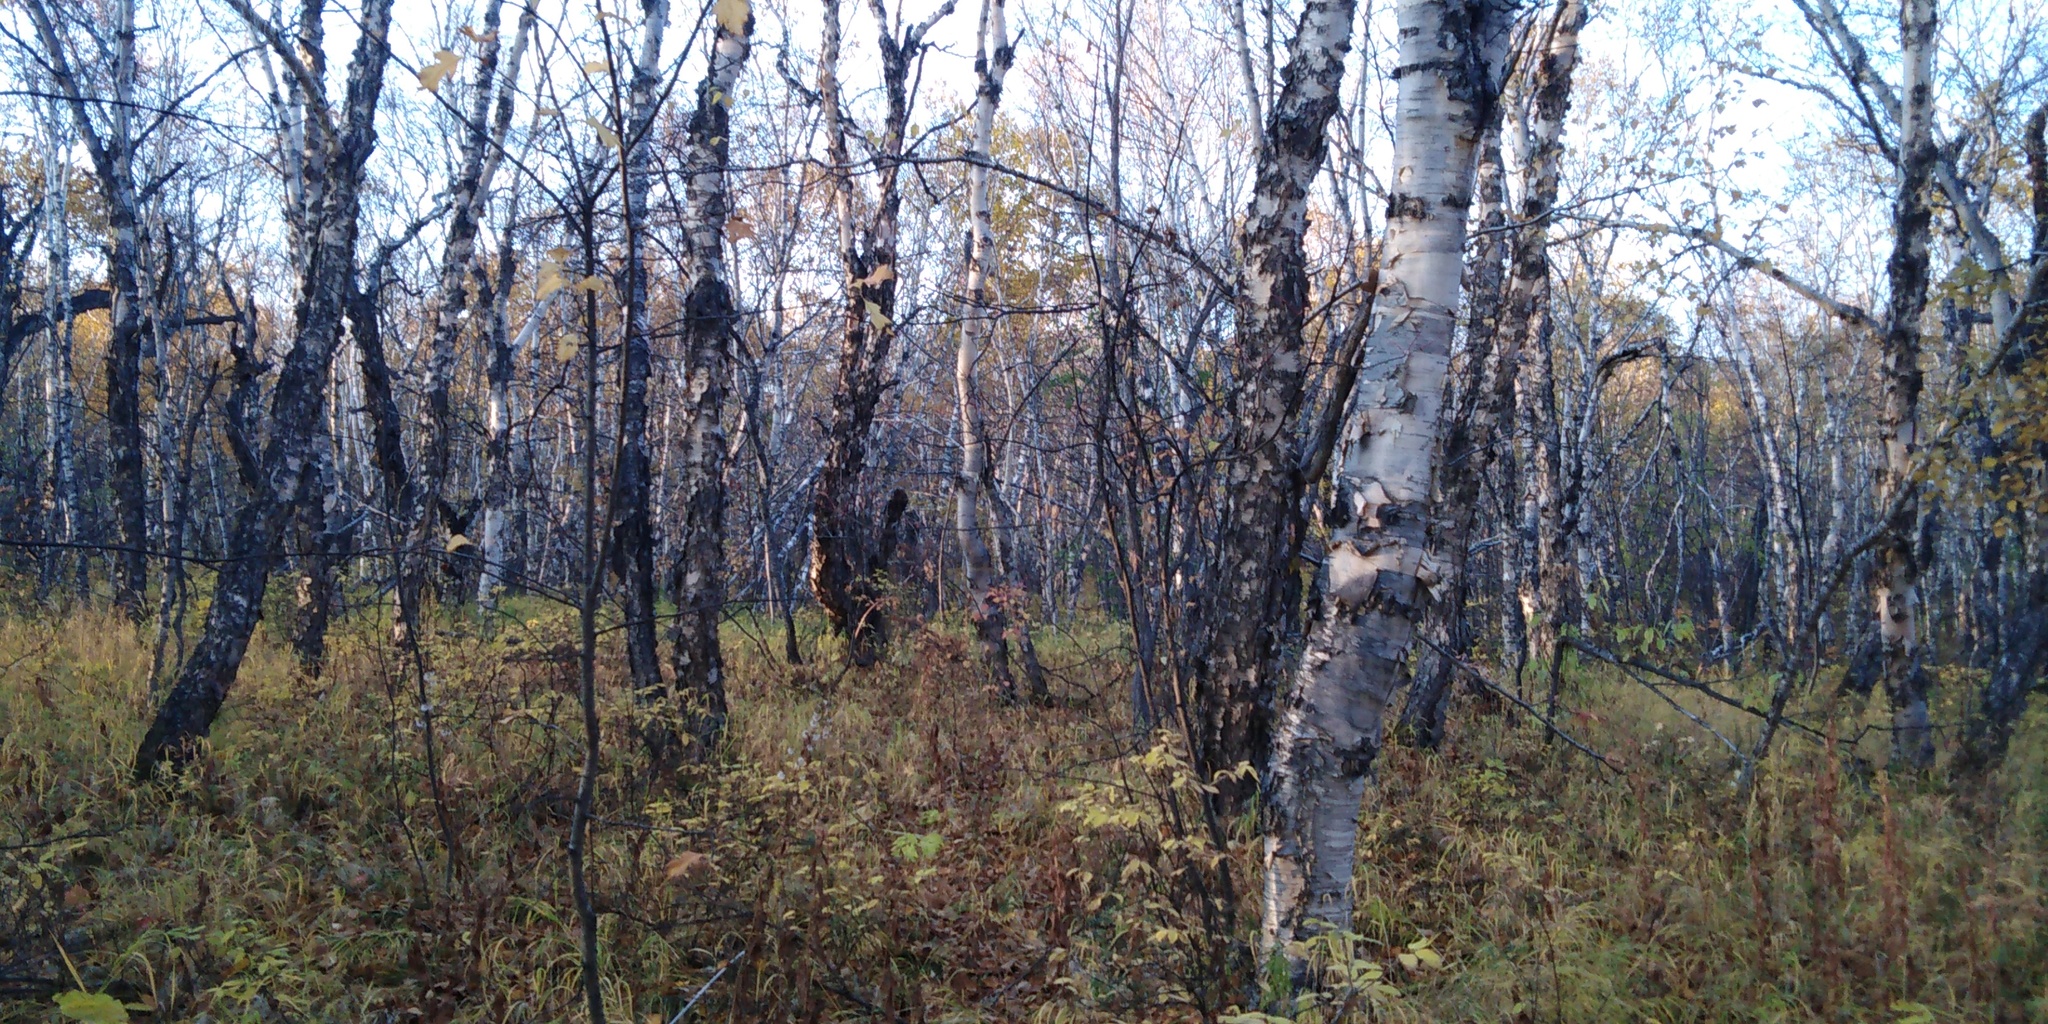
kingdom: Plantae
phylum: Tracheophyta
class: Magnoliopsida
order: Fagales
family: Betulaceae
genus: Betula
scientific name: Betula ermanii
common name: Erman's birch
